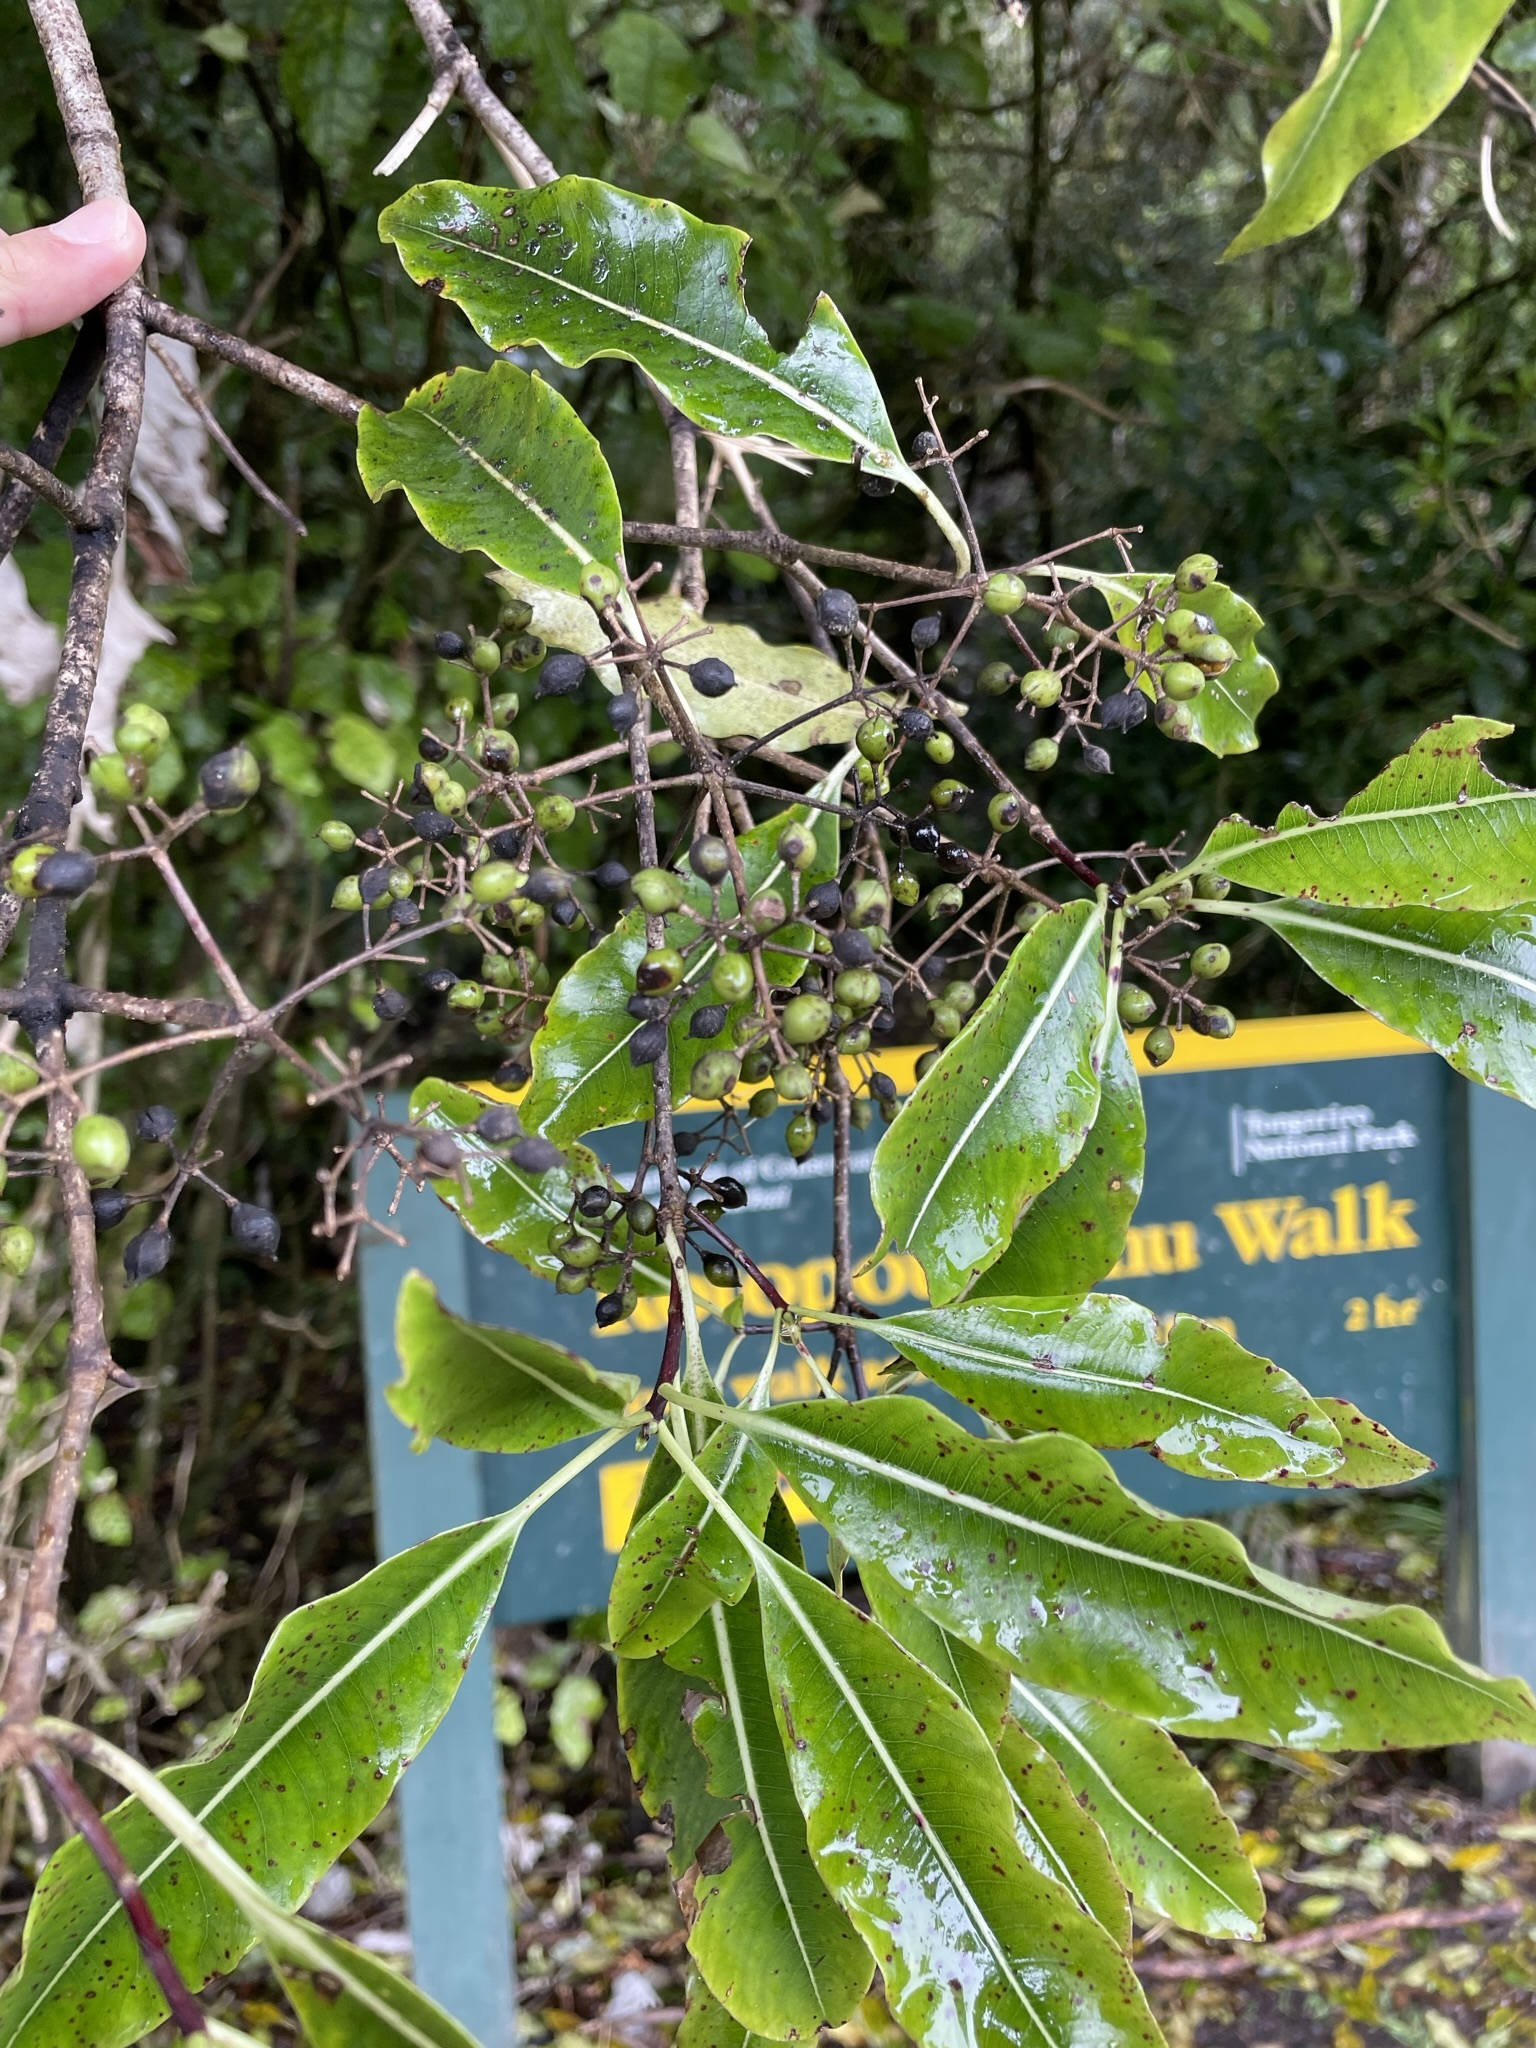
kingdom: Plantae
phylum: Tracheophyta
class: Magnoliopsida
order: Apiales
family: Pittosporaceae
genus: Pittosporum
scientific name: Pittosporum eugenioides
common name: Lemonwood
